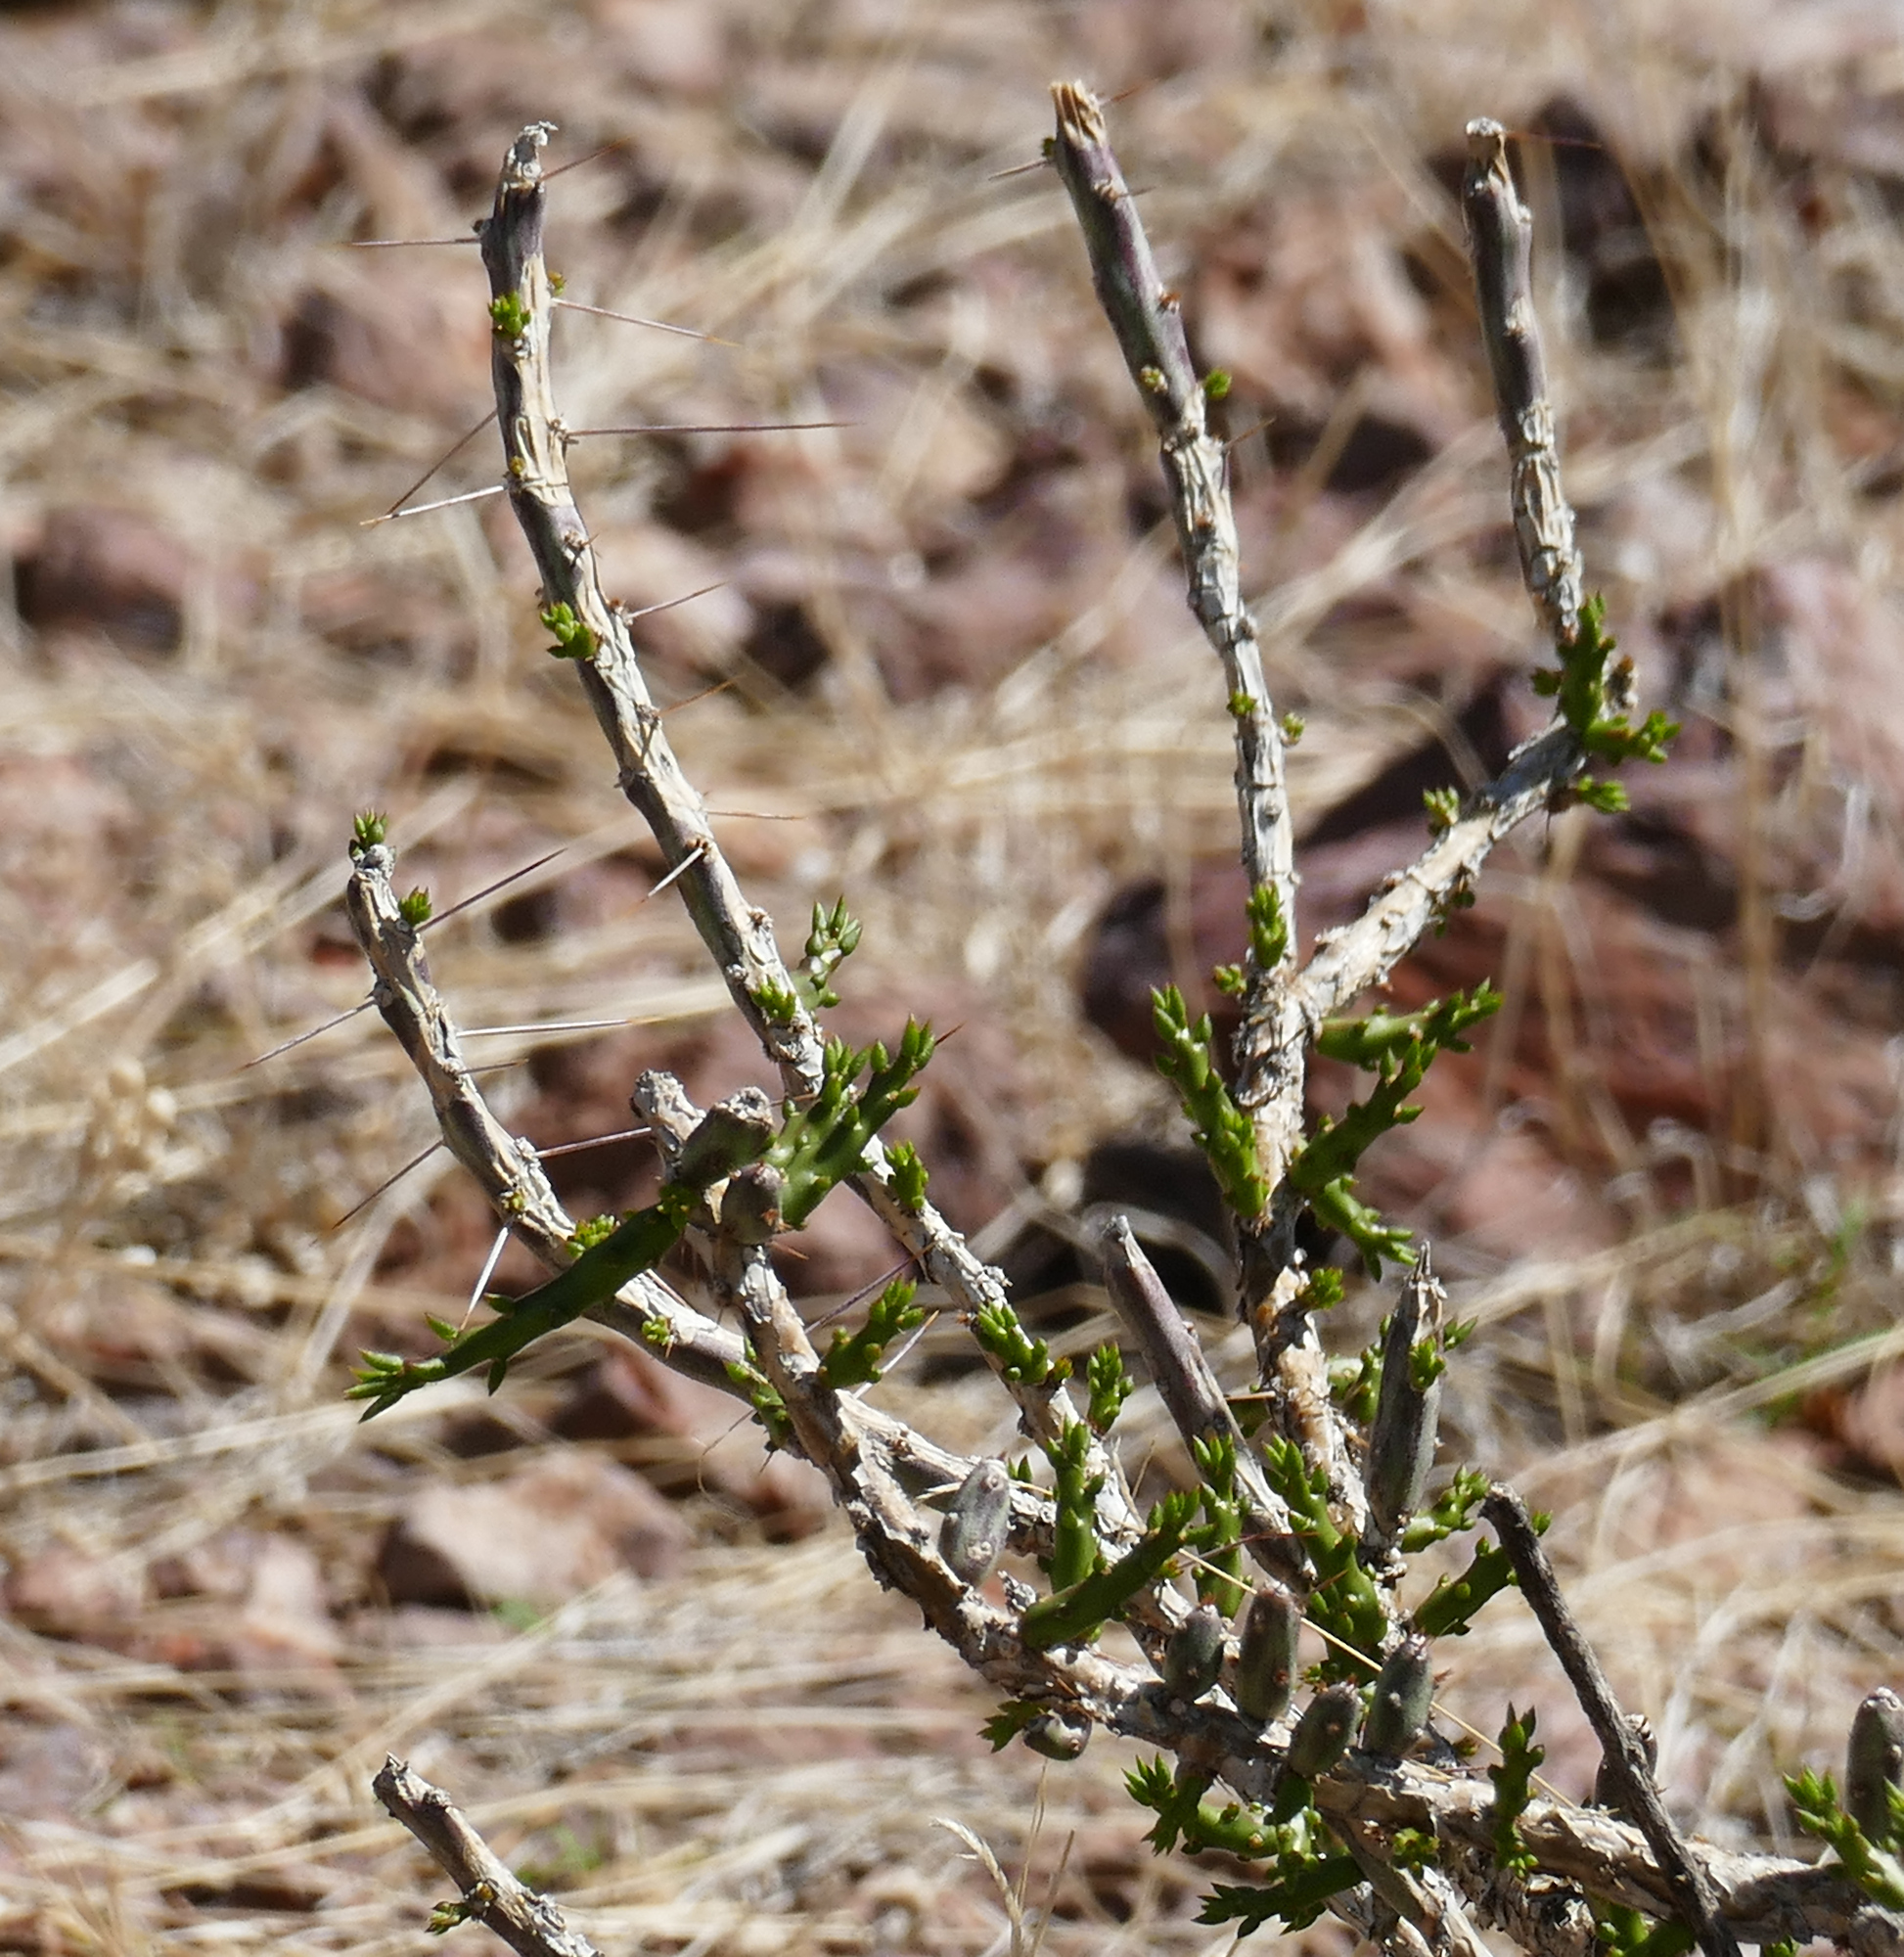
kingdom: Plantae
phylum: Tracheophyta
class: Magnoliopsida
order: Caryophyllales
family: Cactaceae
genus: Cylindropuntia
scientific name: Cylindropuntia leptocaulis
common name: Christmas cactus
